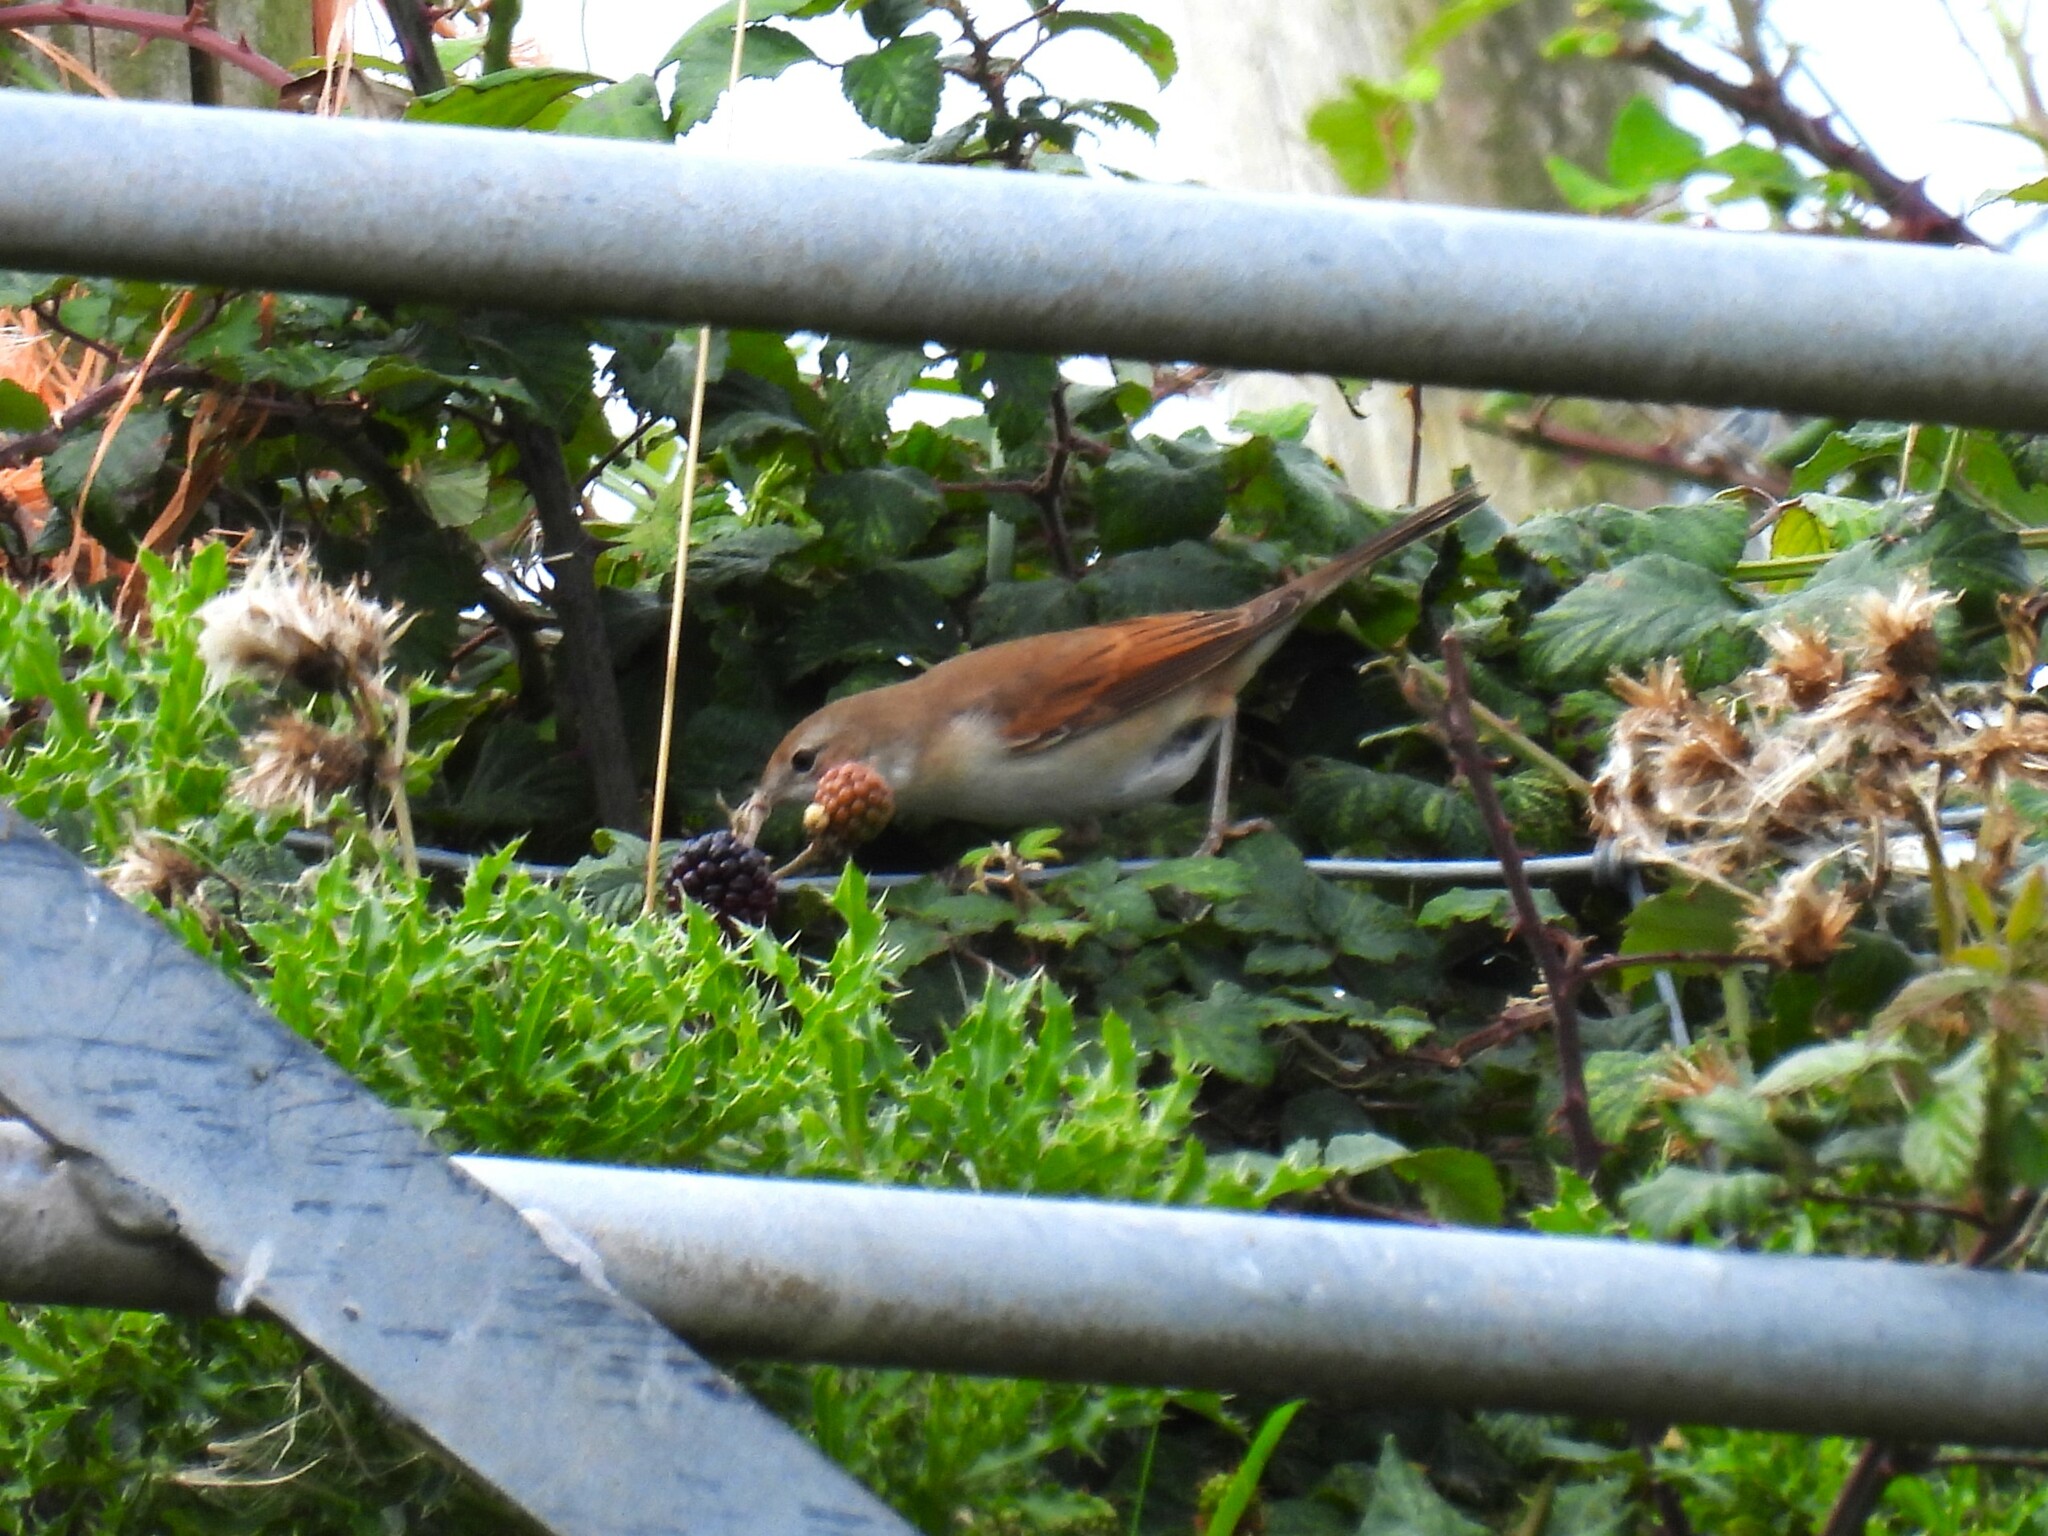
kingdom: Animalia
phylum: Chordata
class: Aves
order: Passeriformes
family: Sylviidae
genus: Sylvia
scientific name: Sylvia communis
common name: Common whitethroat
